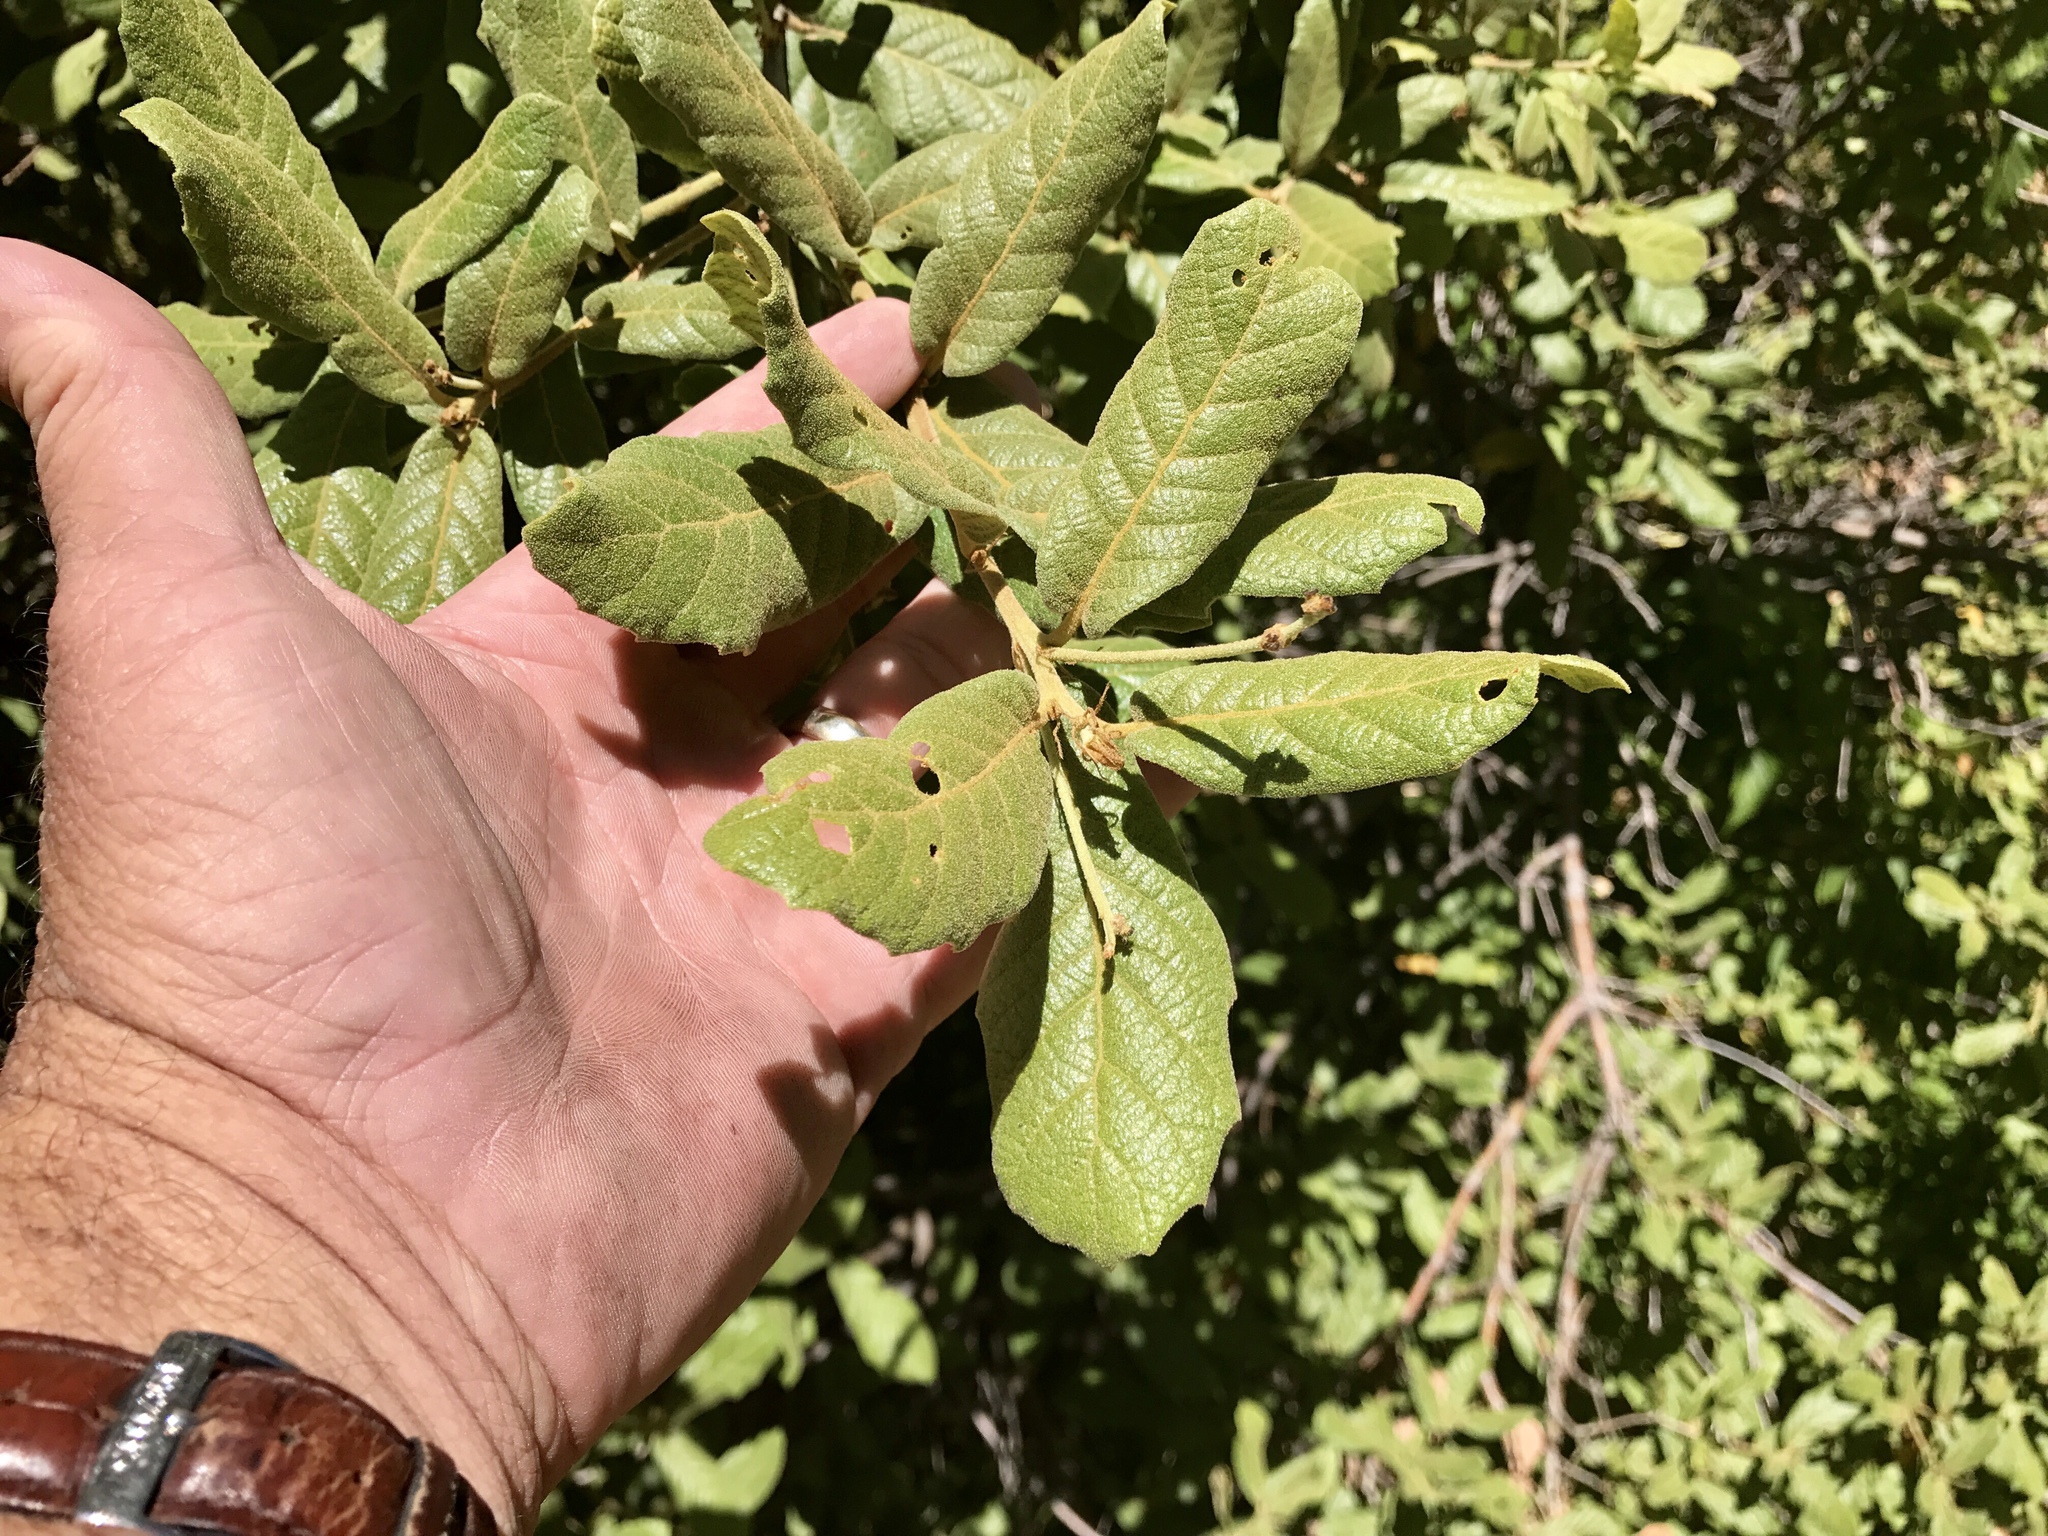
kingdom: Plantae
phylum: Tracheophyta
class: Magnoliopsida
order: Fagales
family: Fagaceae
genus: Quercus
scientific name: Quercus rugosa
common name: Netleaf oak
